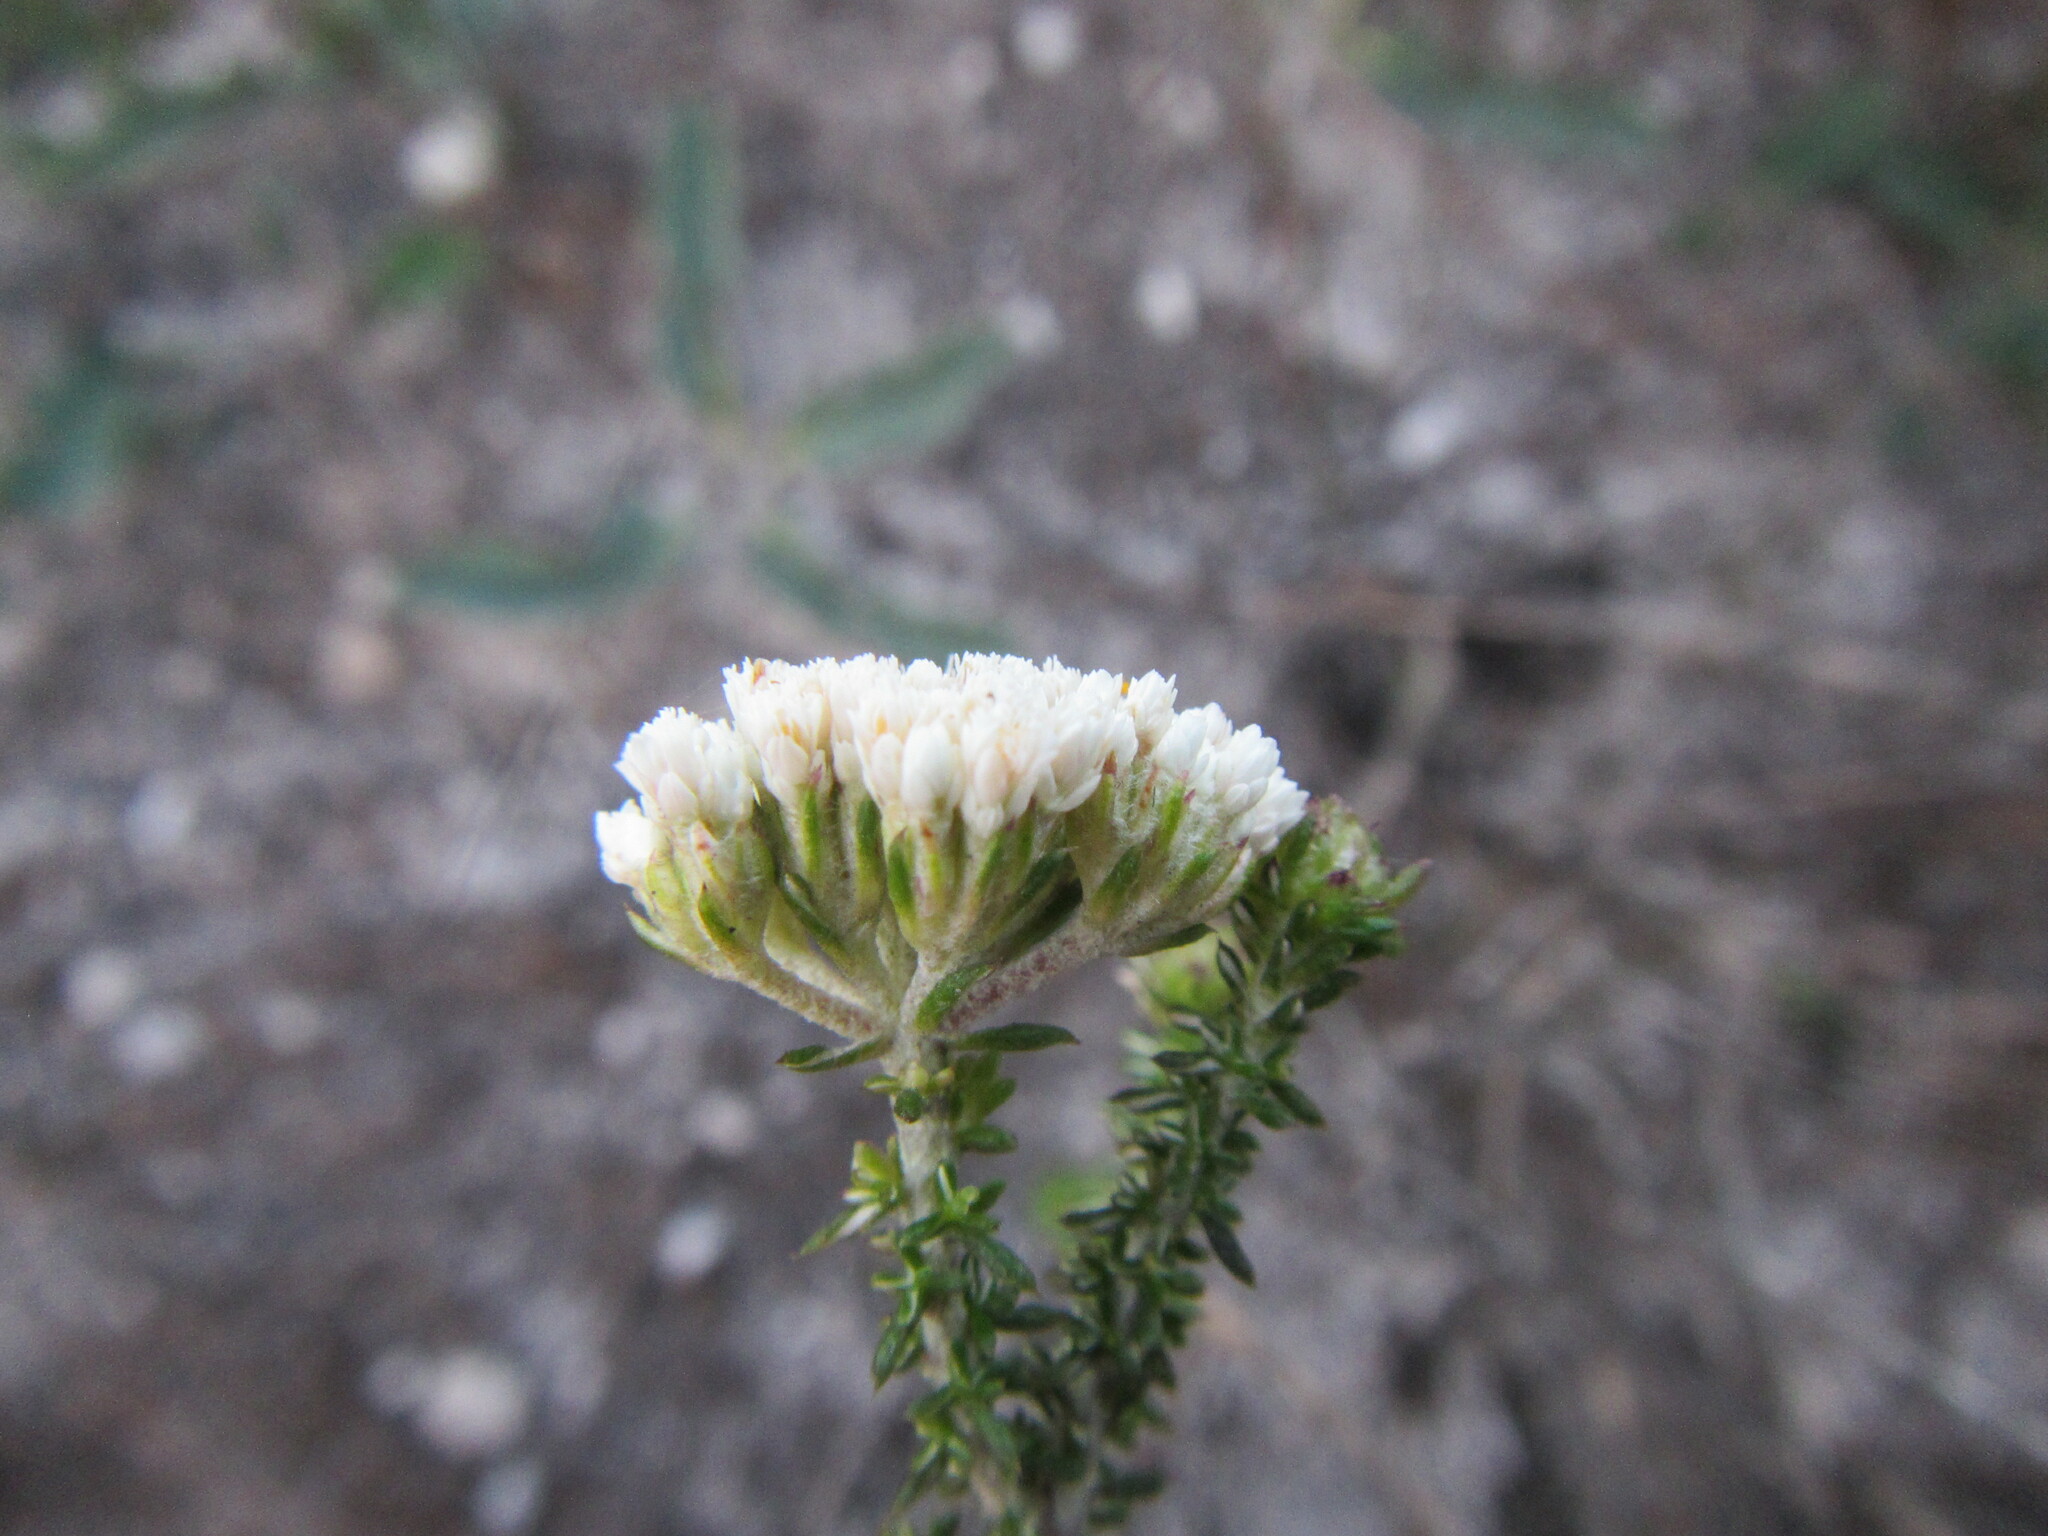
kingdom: Plantae
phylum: Tracheophyta
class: Magnoliopsida
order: Asterales
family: Asteraceae
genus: Metalasia
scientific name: Metalasia brevifolia
